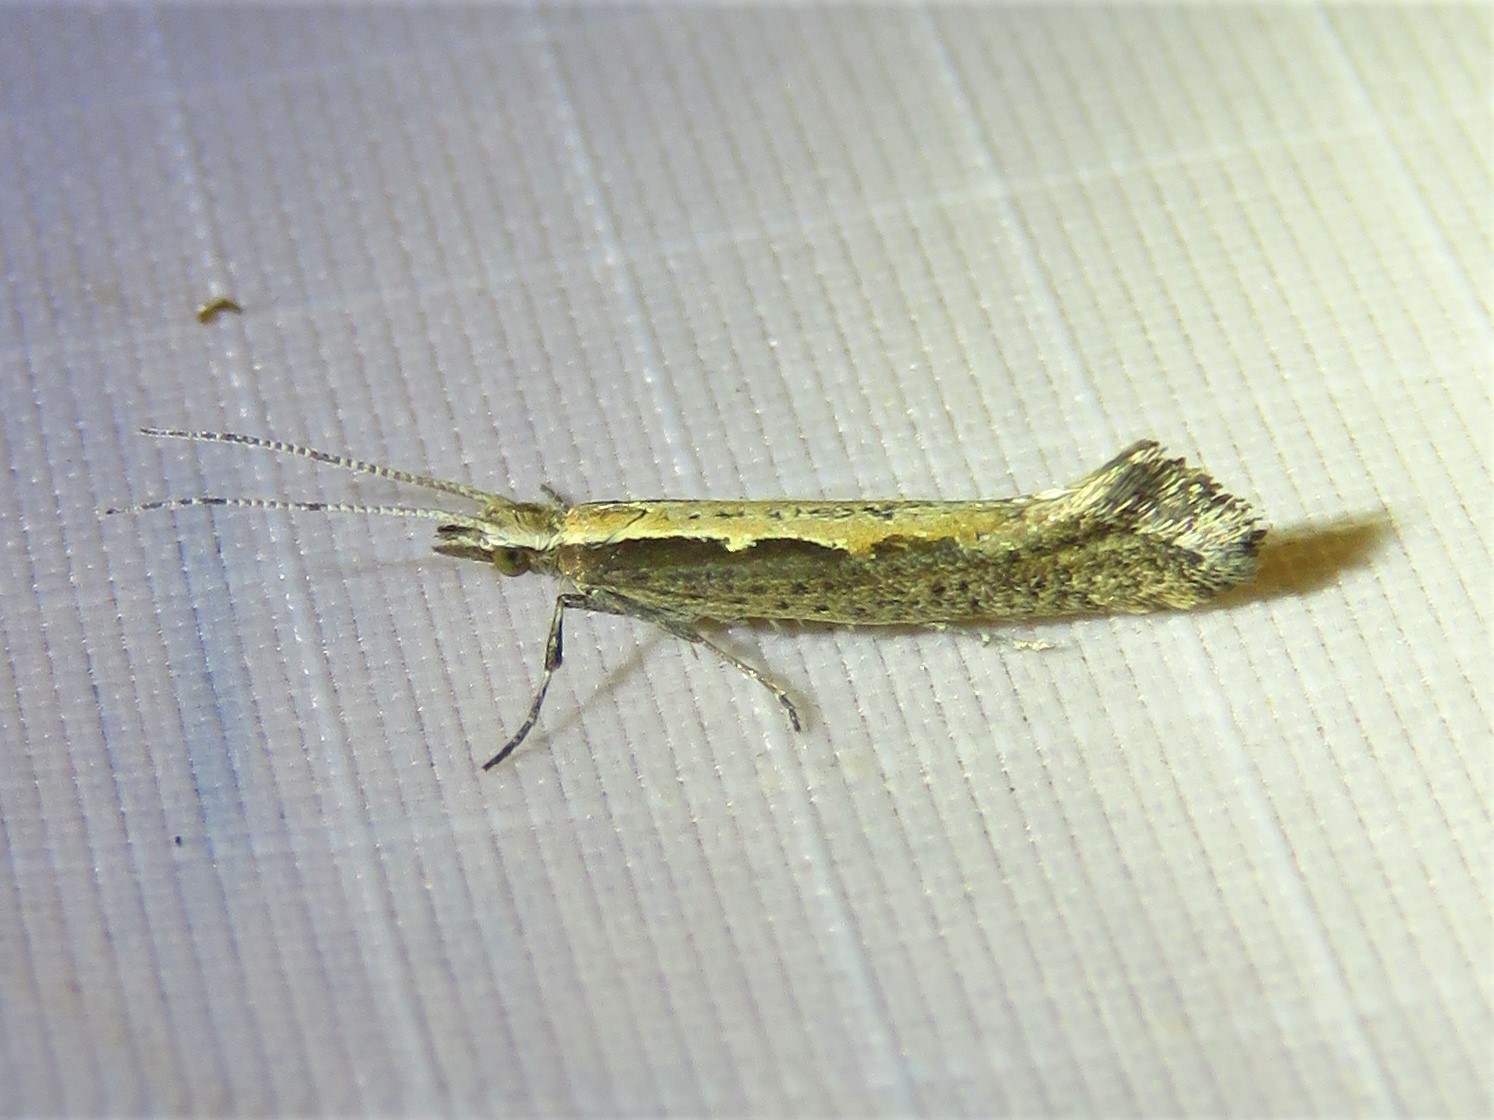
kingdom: Animalia
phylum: Arthropoda
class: Insecta
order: Lepidoptera
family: Plutellidae
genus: Plutella
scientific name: Plutella xylostella
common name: Diamond-back moth
